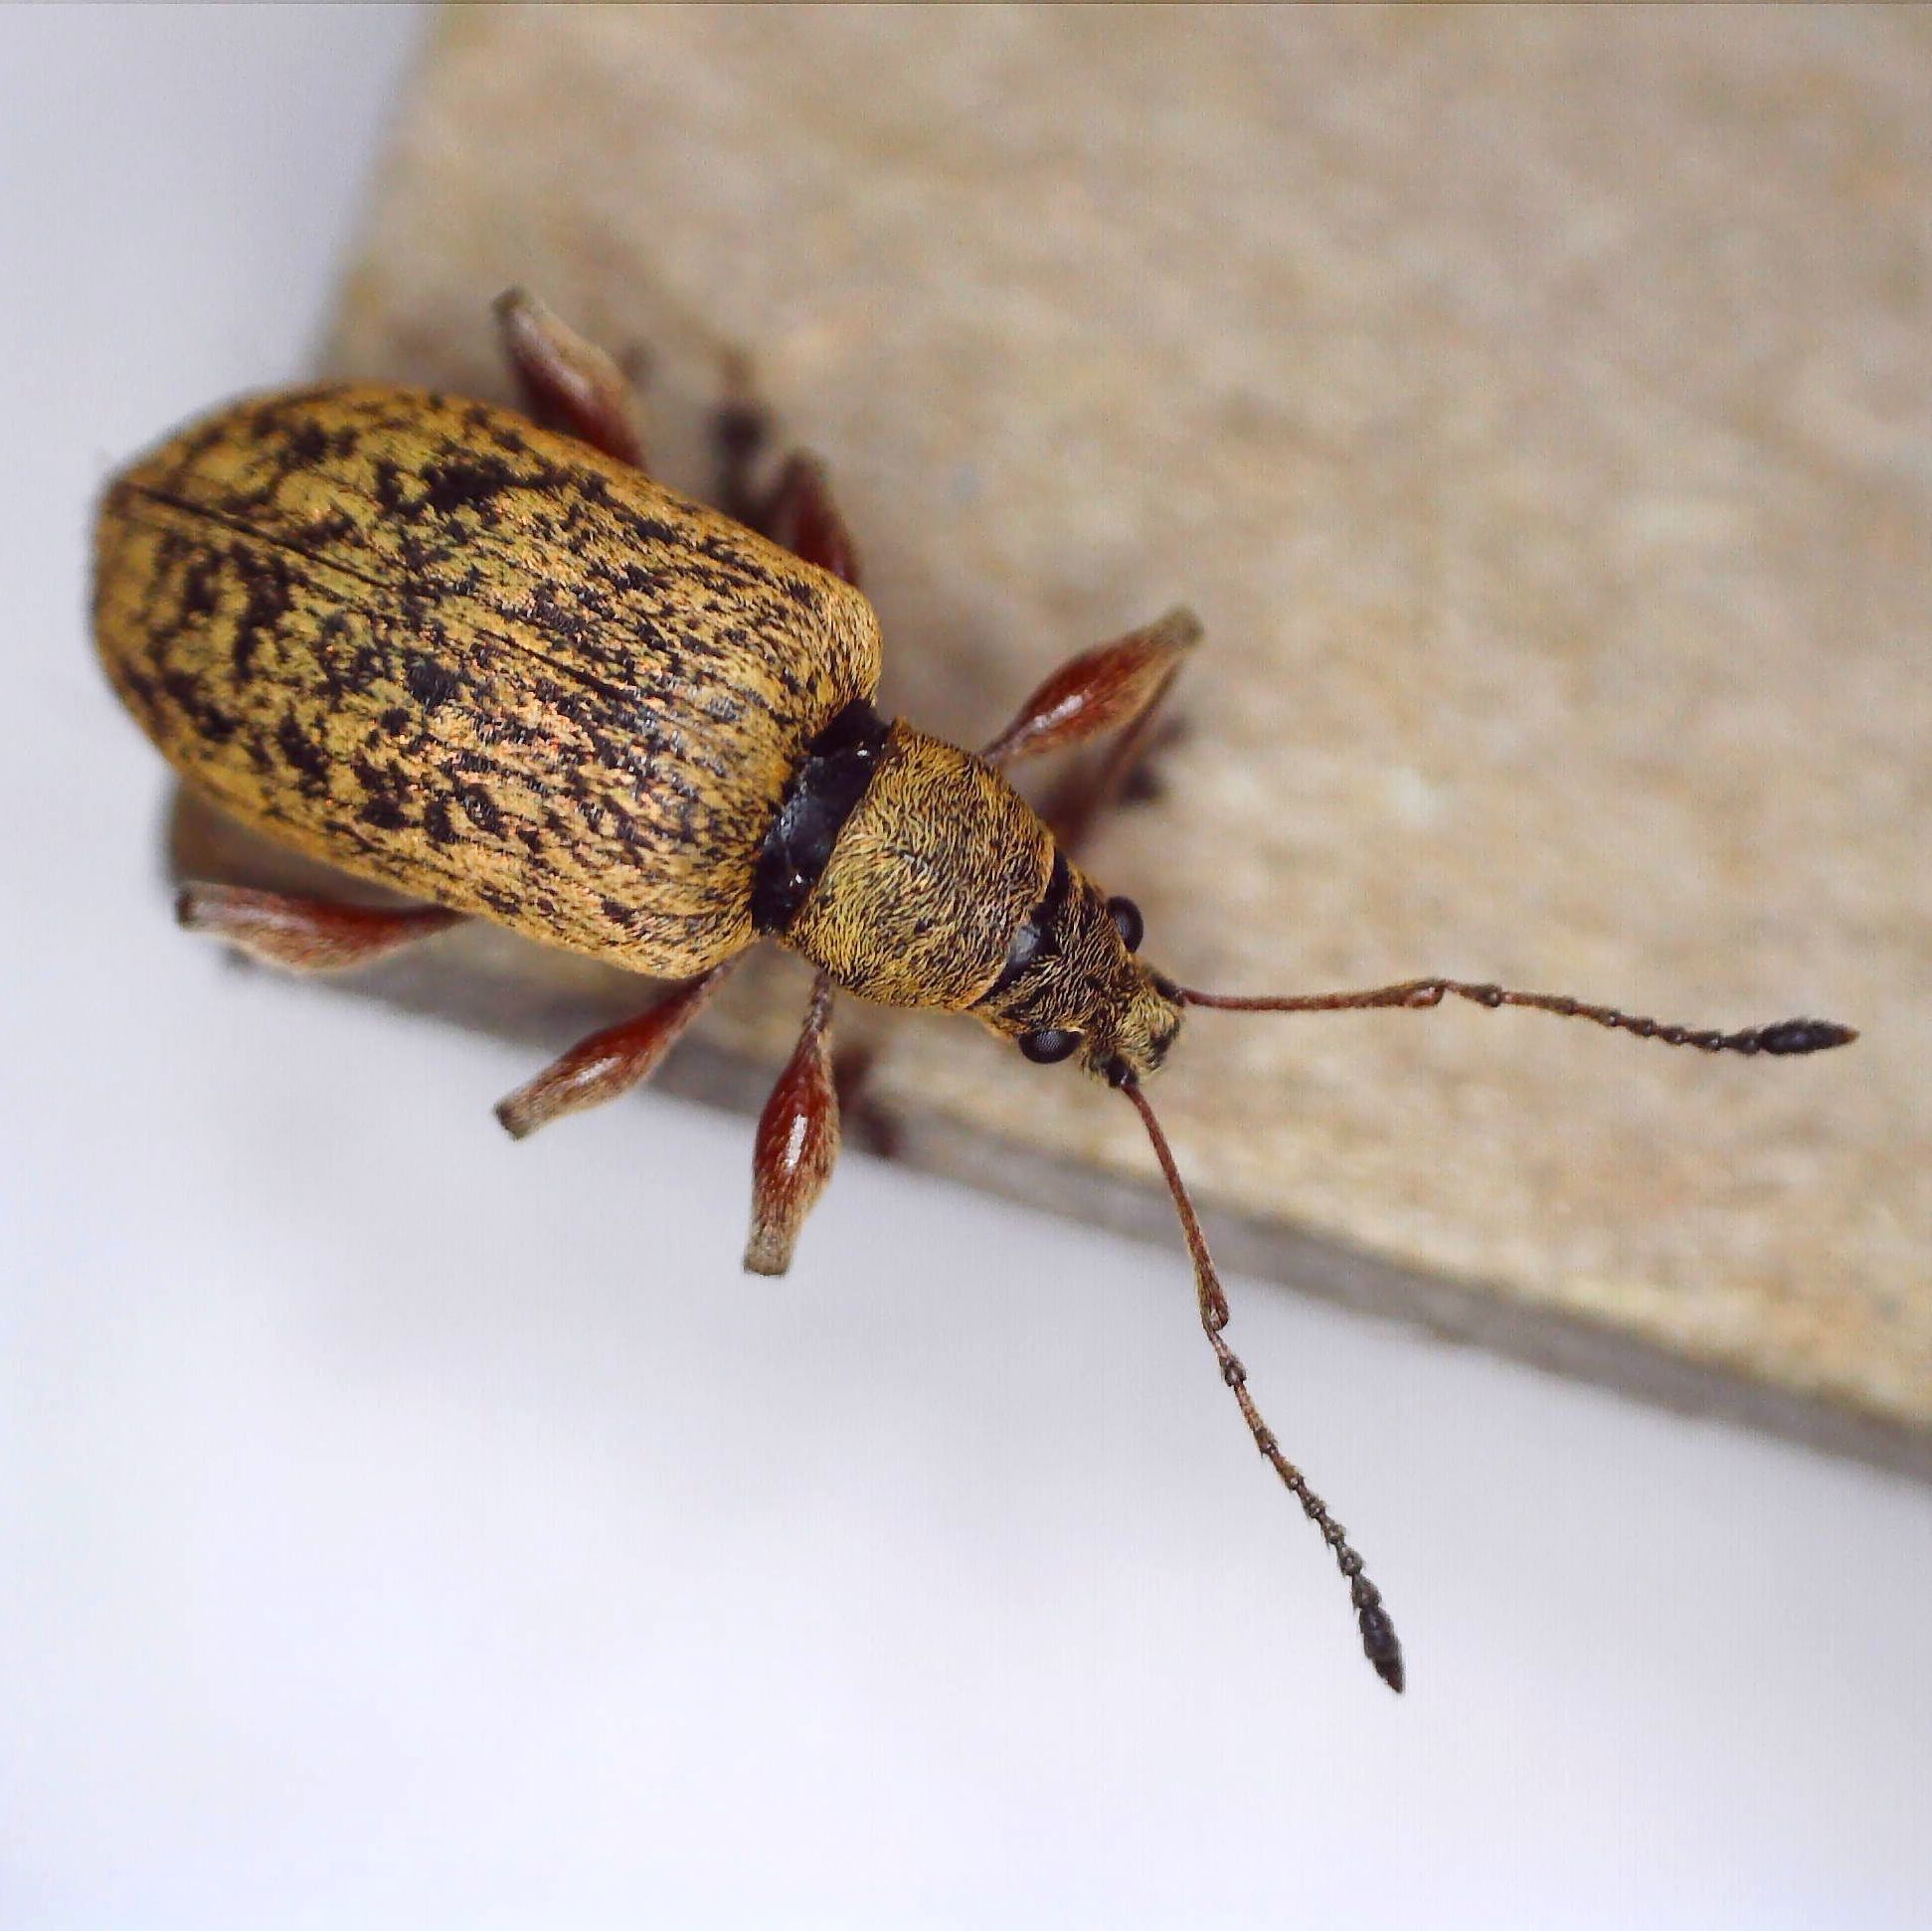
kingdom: Animalia
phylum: Arthropoda
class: Insecta
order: Coleoptera
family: Curculionidae
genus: Phyllobius
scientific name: Phyllobius glaucus
